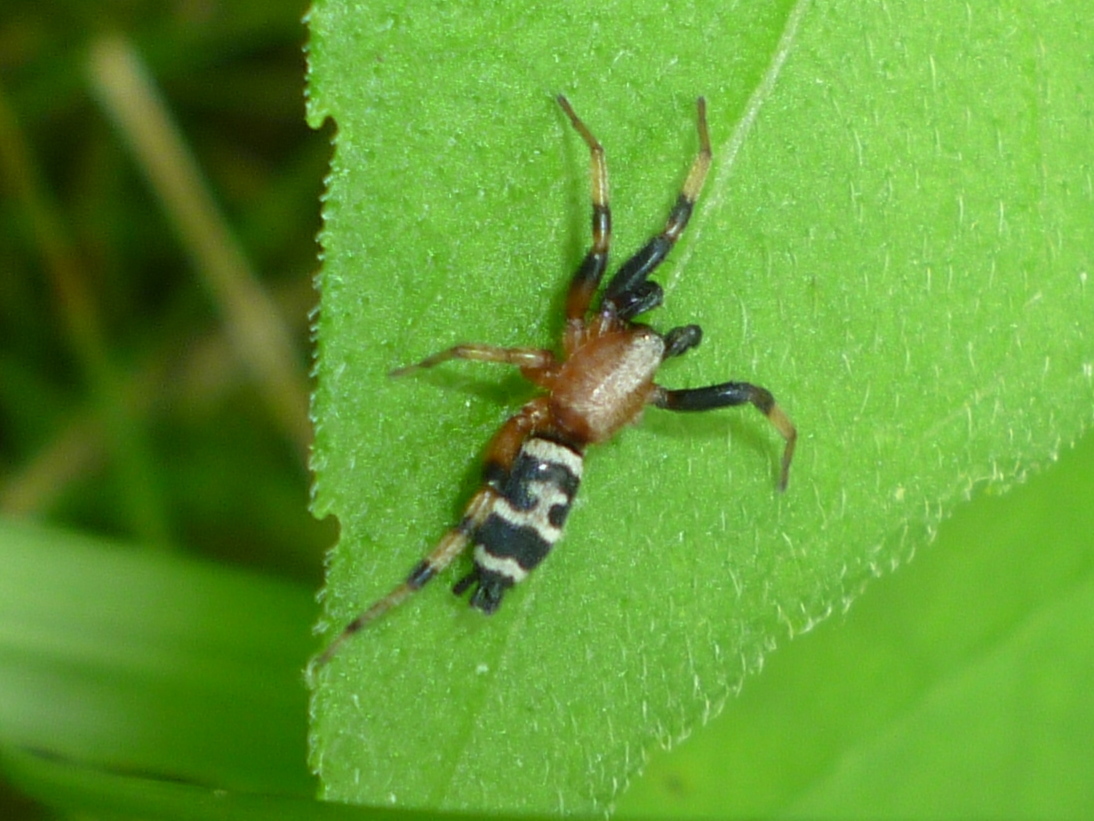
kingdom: Animalia
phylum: Arthropoda
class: Arachnida
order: Araneae
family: Gnaphosidae
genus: Sergiolus
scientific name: Sergiolus capulatus
